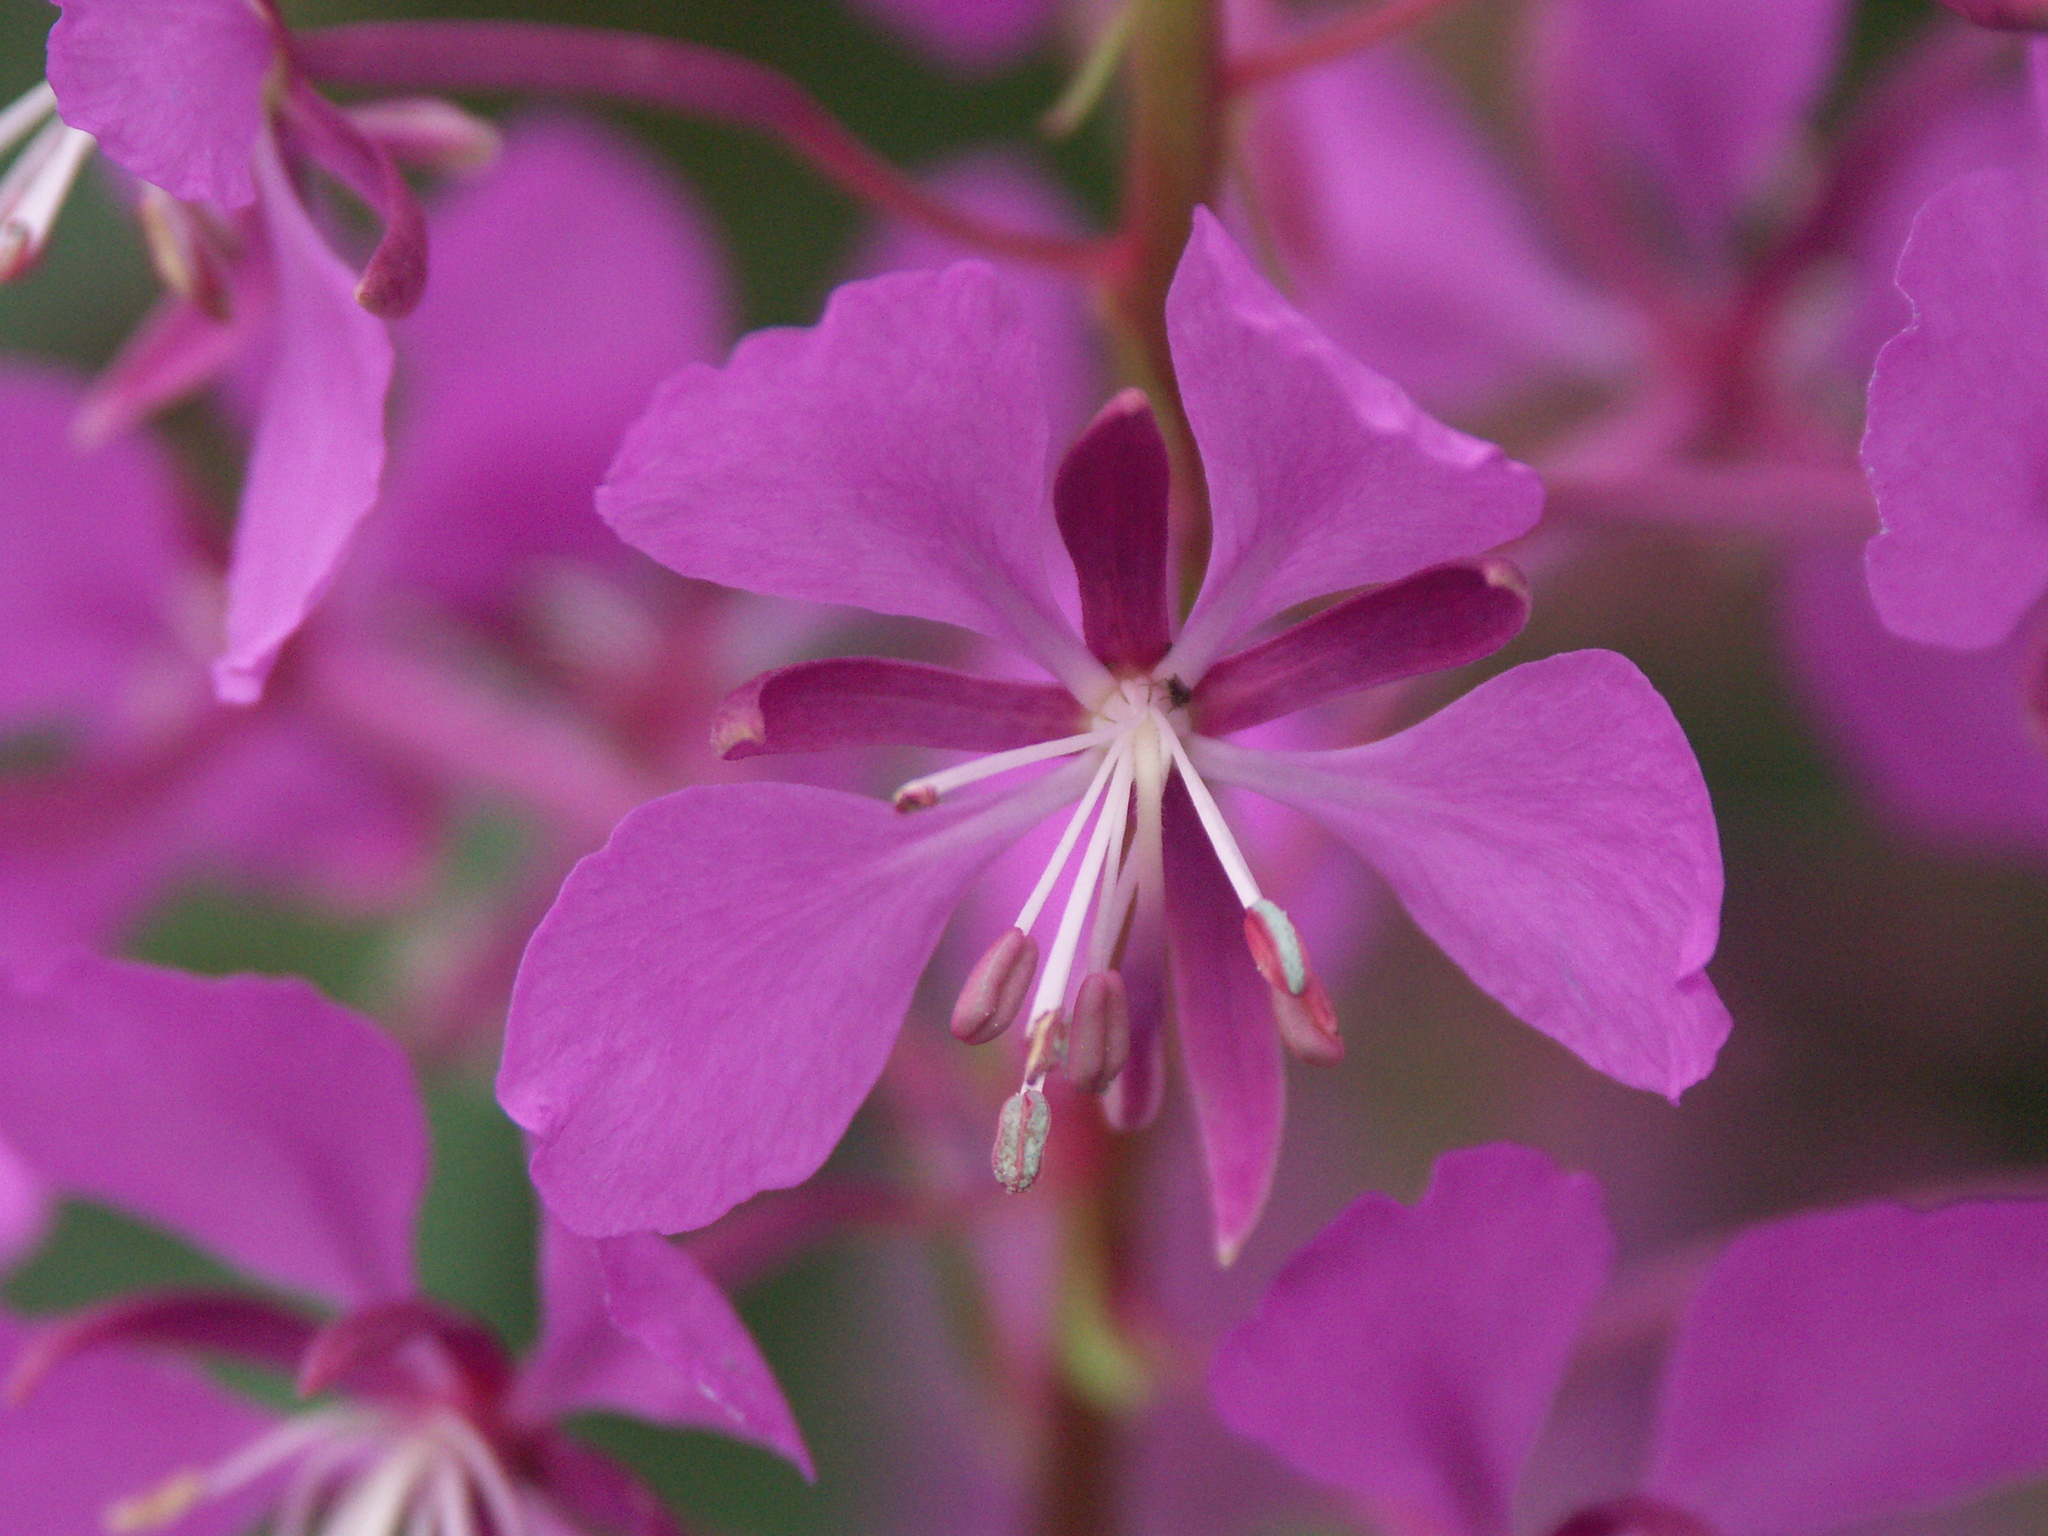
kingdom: Plantae
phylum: Tracheophyta
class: Magnoliopsida
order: Myrtales
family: Onagraceae
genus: Chamaenerion
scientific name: Chamaenerion angustifolium
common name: Fireweed
